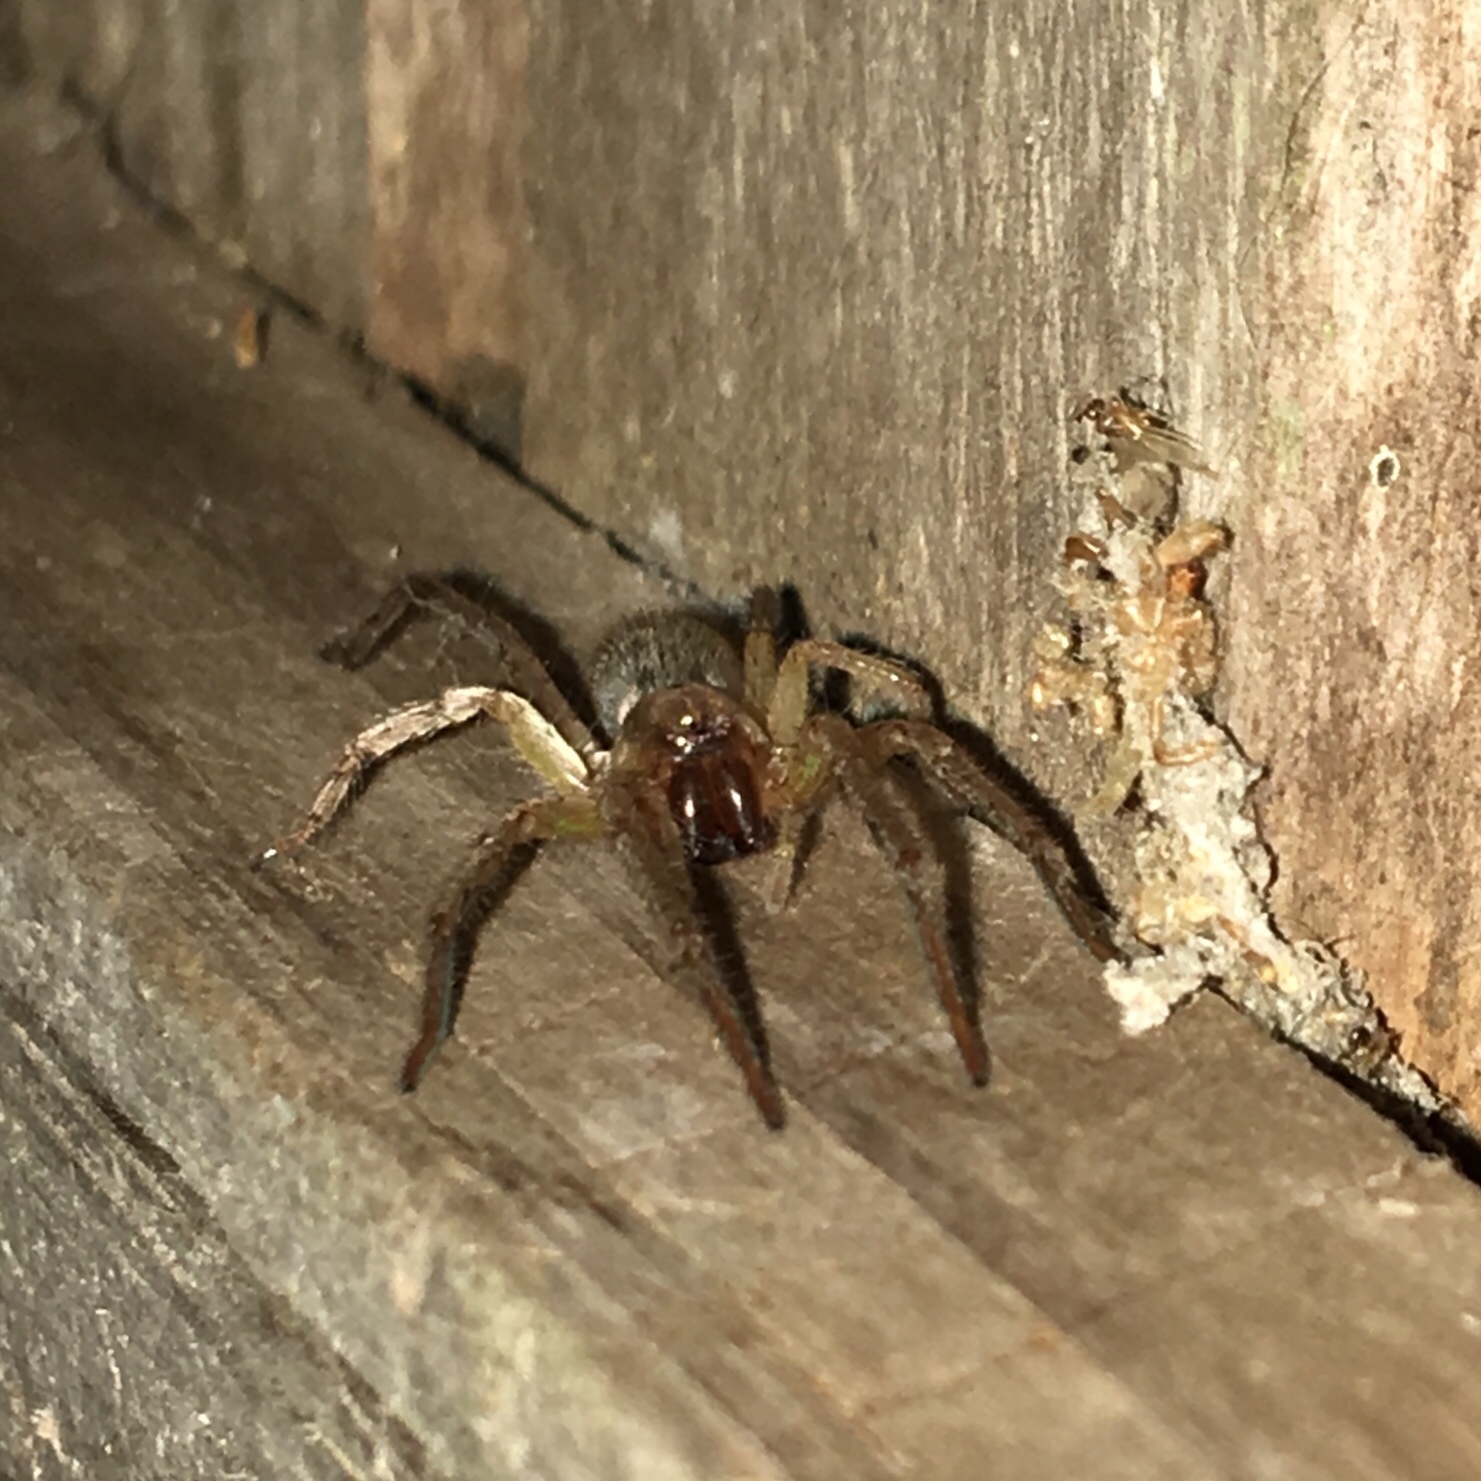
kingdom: Animalia
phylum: Arthropoda
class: Arachnida
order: Araneae
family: Anyphaenidae
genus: Hibana
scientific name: Hibana gracilis
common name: Garden ghost spider
